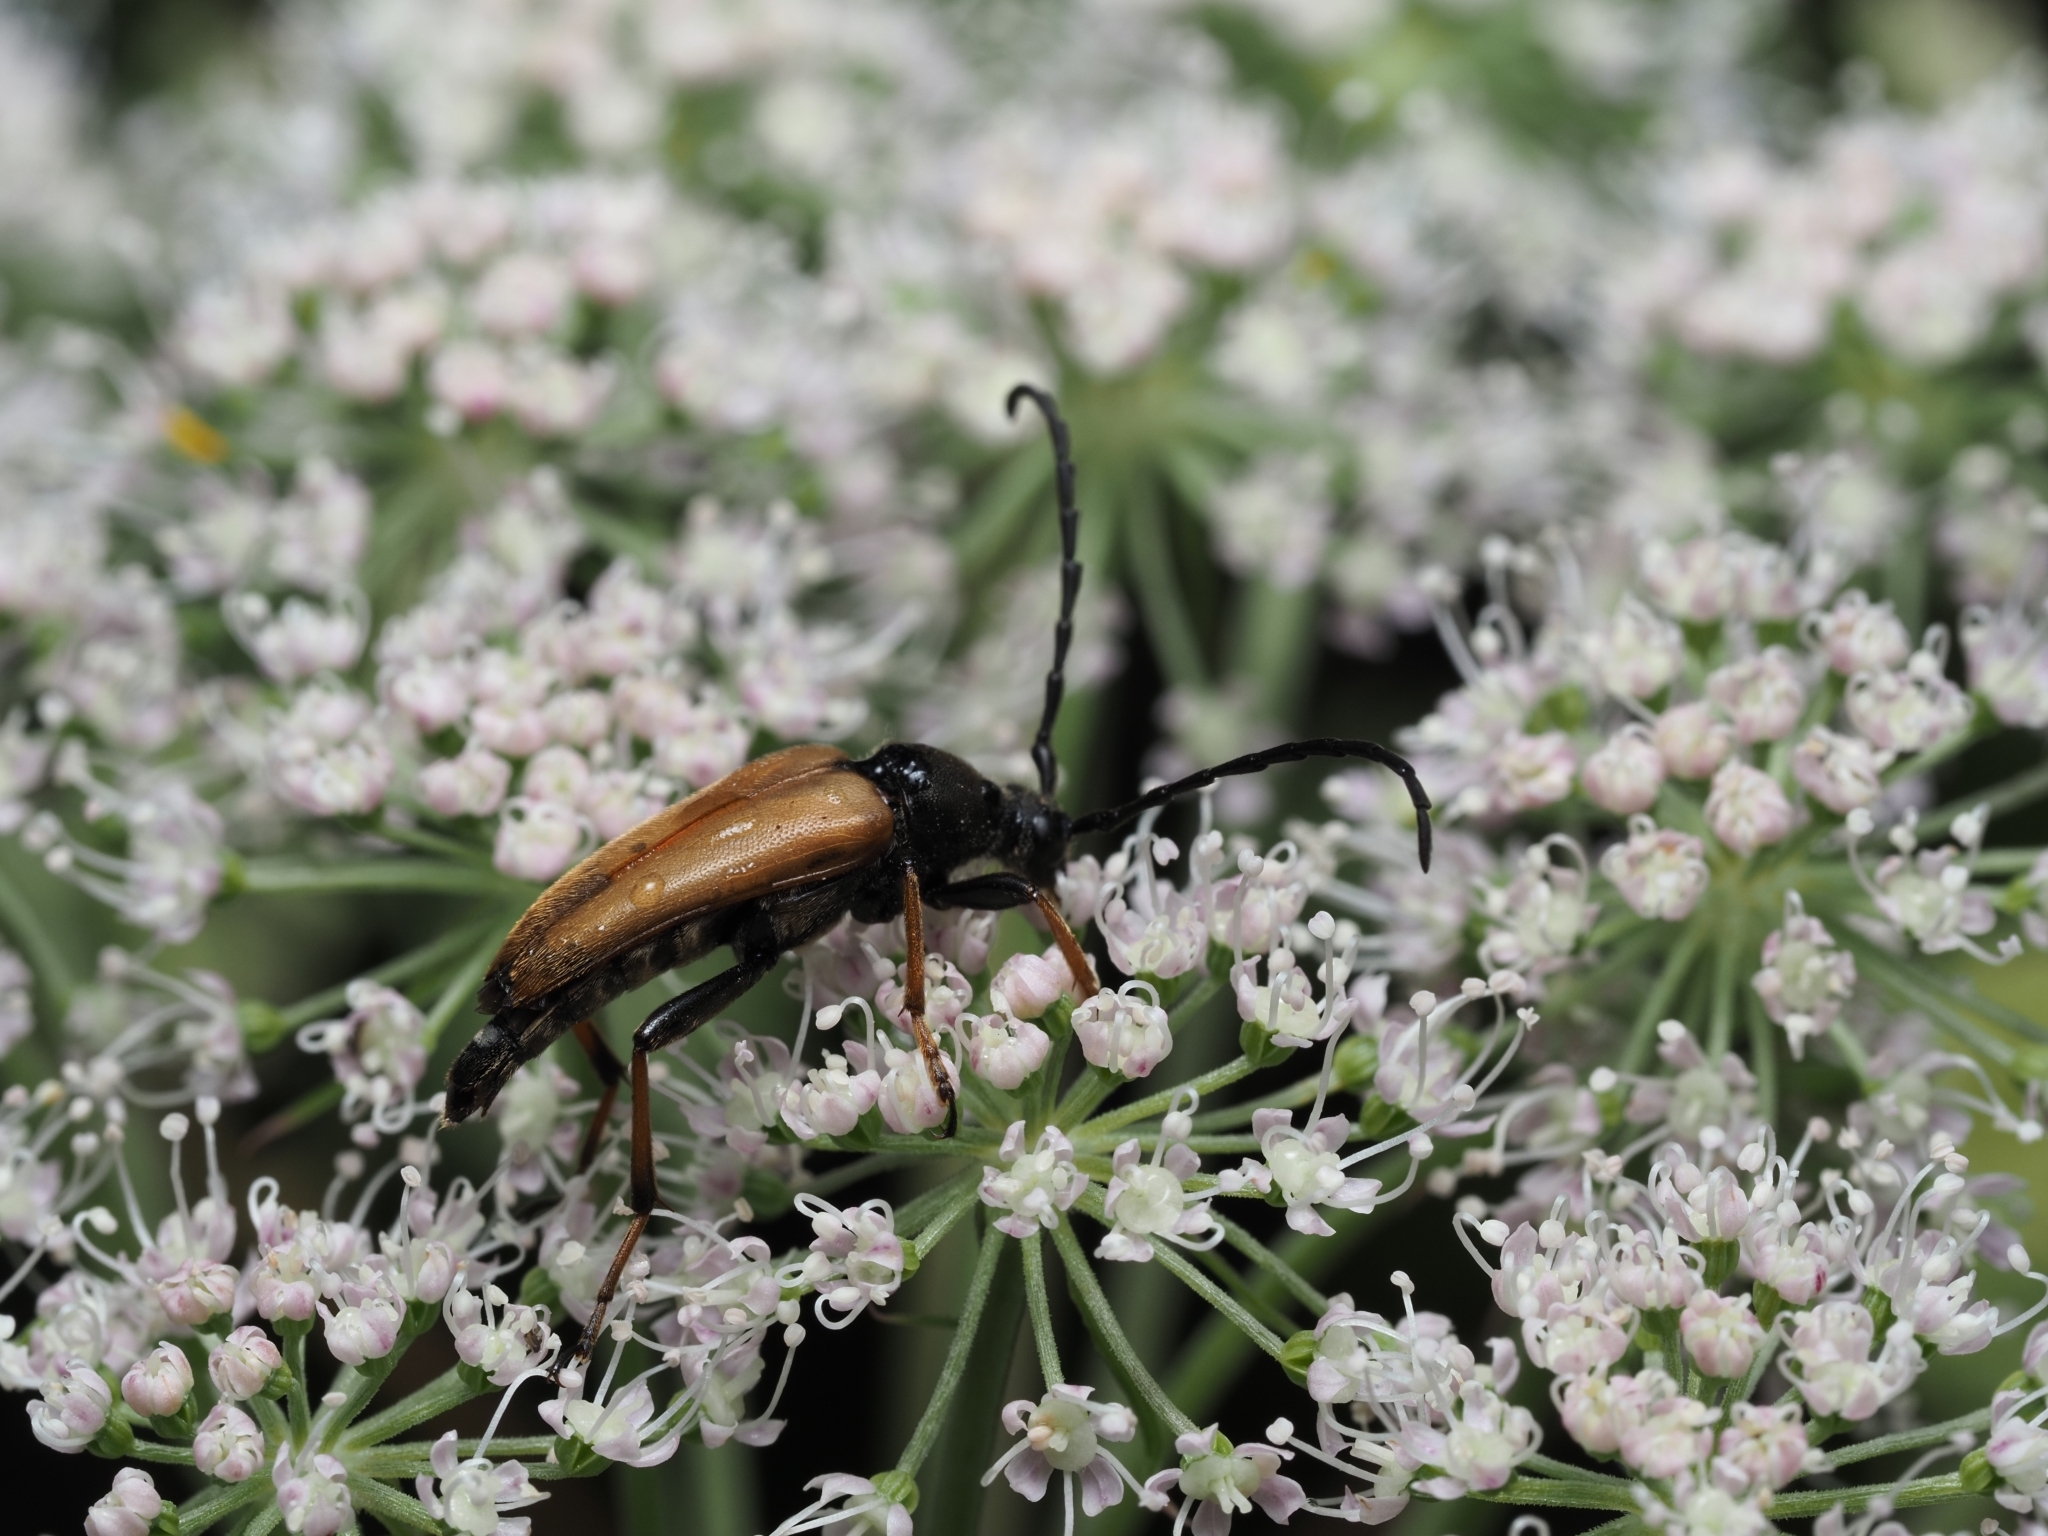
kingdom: Animalia
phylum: Arthropoda
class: Insecta
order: Coleoptera
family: Cerambycidae
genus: Stictoleptura
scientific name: Stictoleptura rubra
